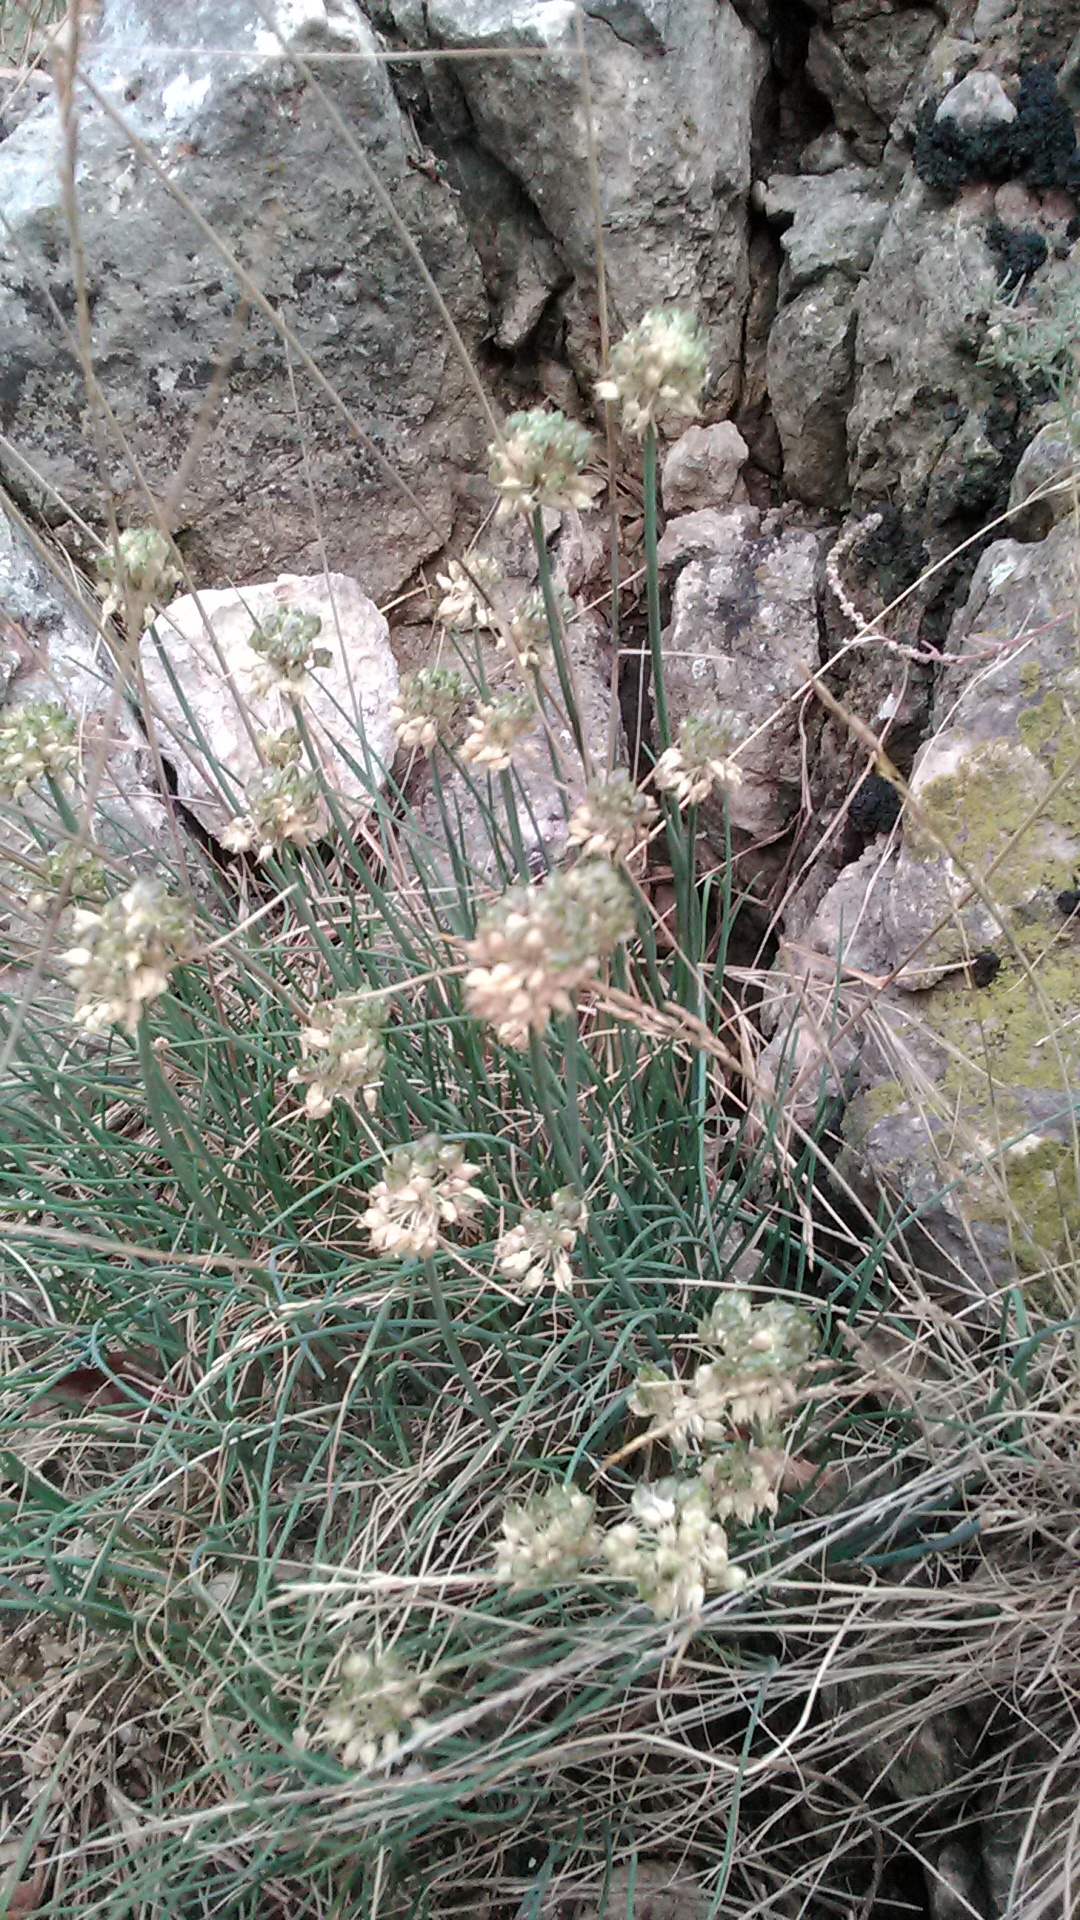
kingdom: Plantae
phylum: Tracheophyta
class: Liliopsida
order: Asparagales
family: Amaryllidaceae
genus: Allium
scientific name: Allium marschallianum
